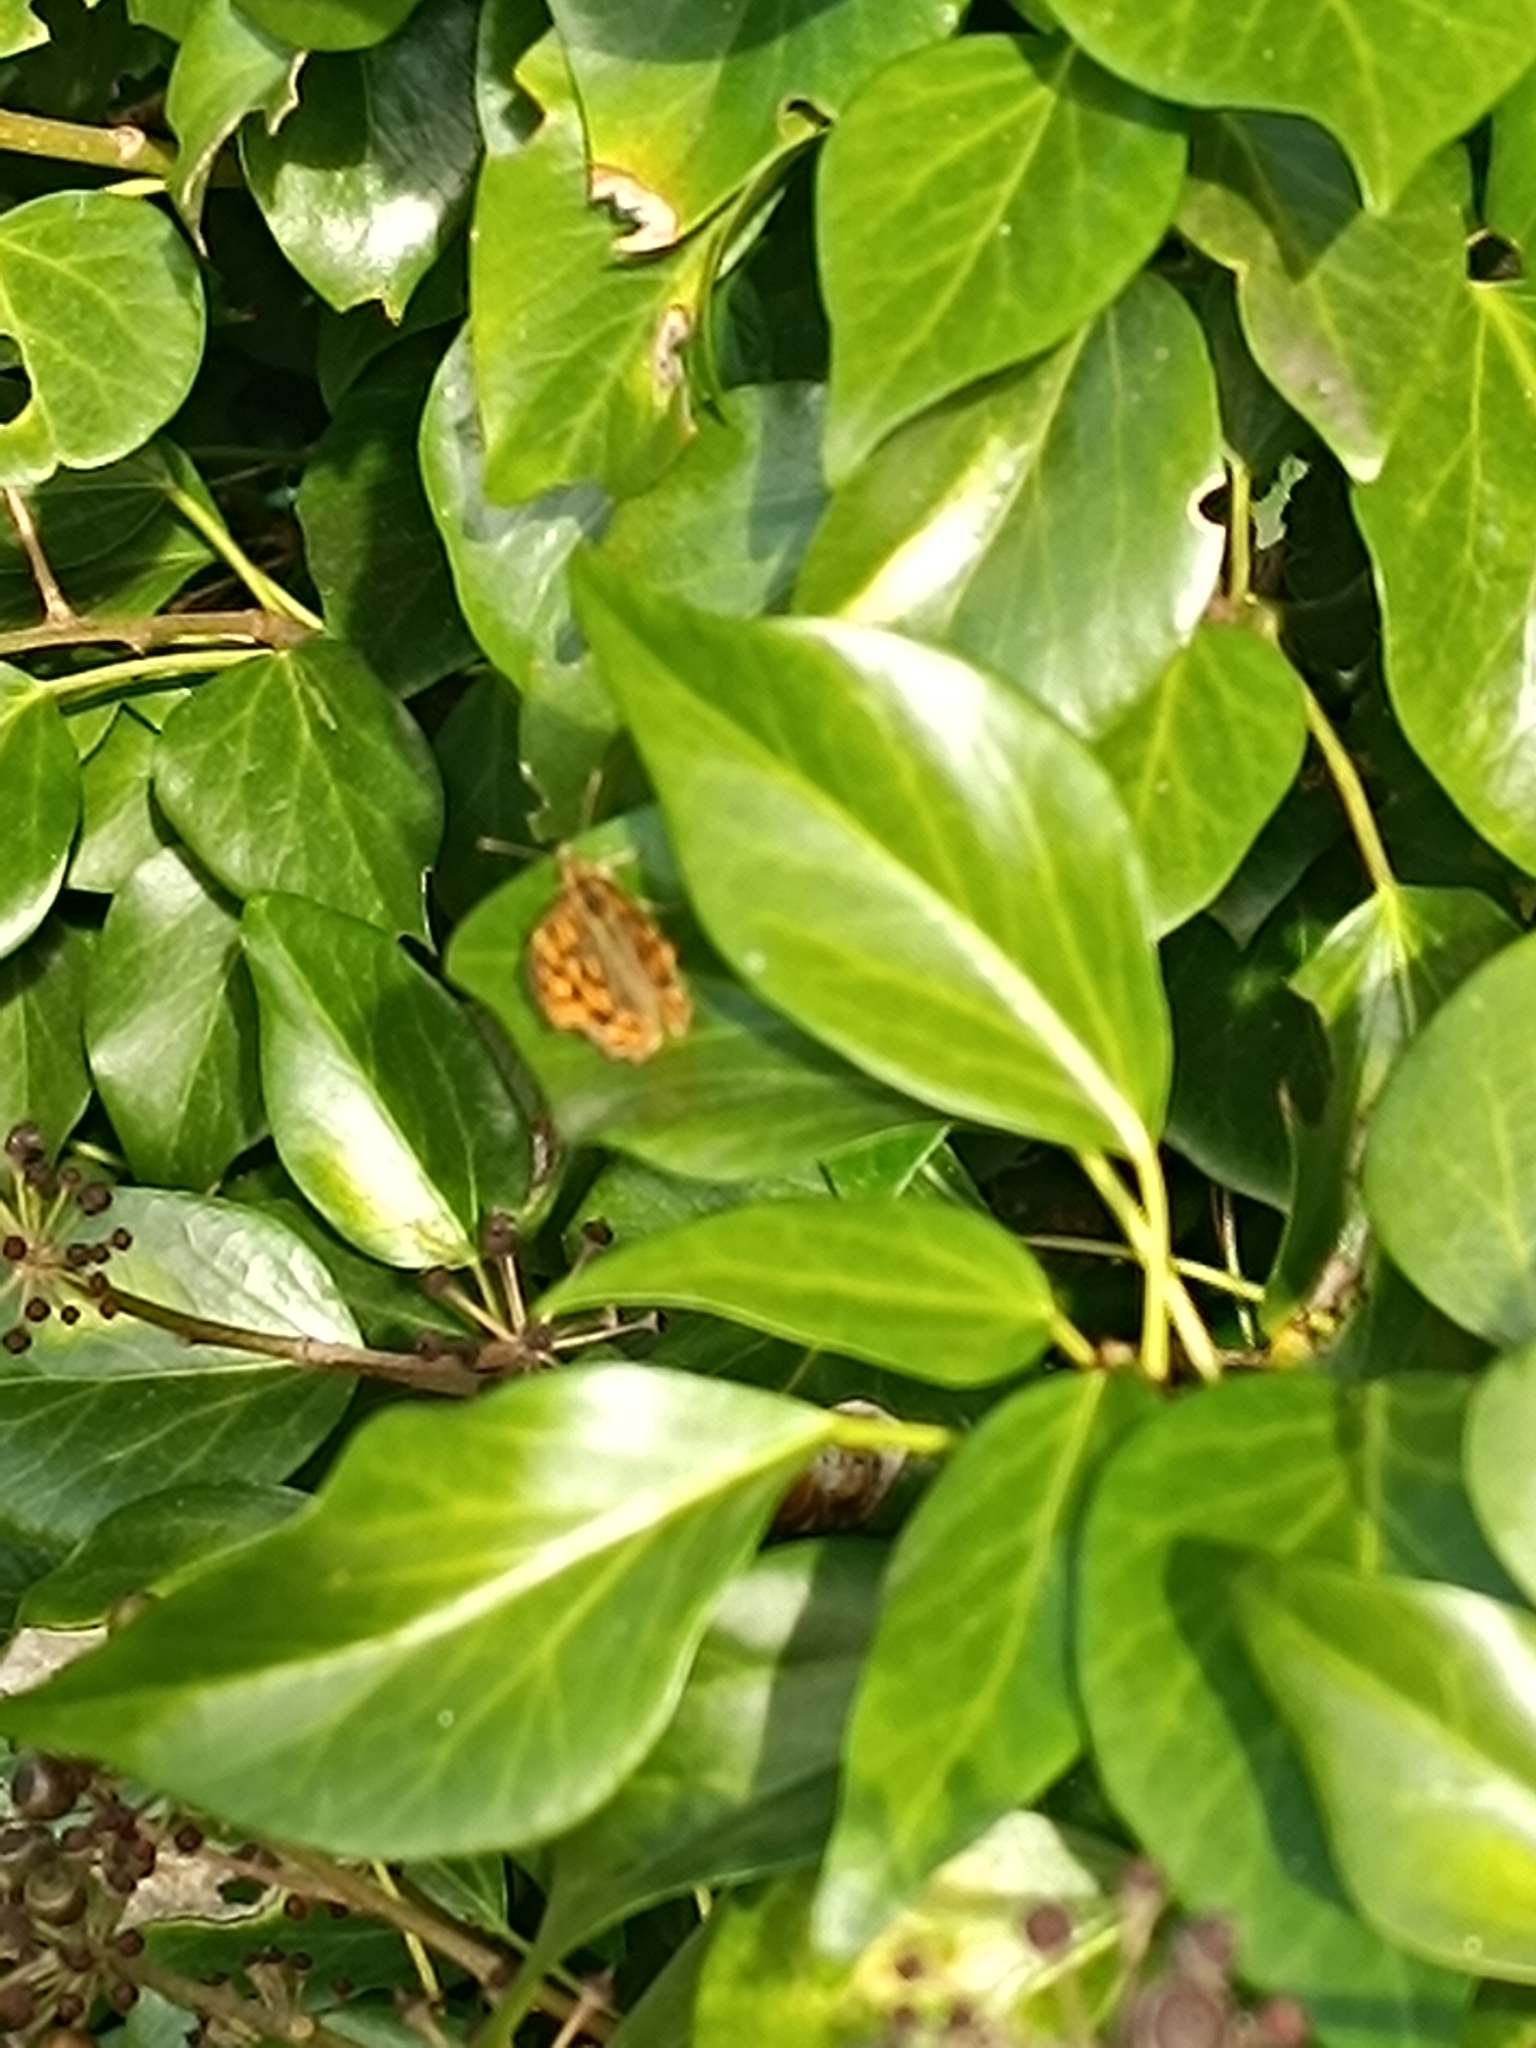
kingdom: Animalia
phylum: Arthropoda
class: Insecta
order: Lepidoptera
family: Nymphalidae
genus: Pararge
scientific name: Pararge aegeria
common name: Speckled wood
